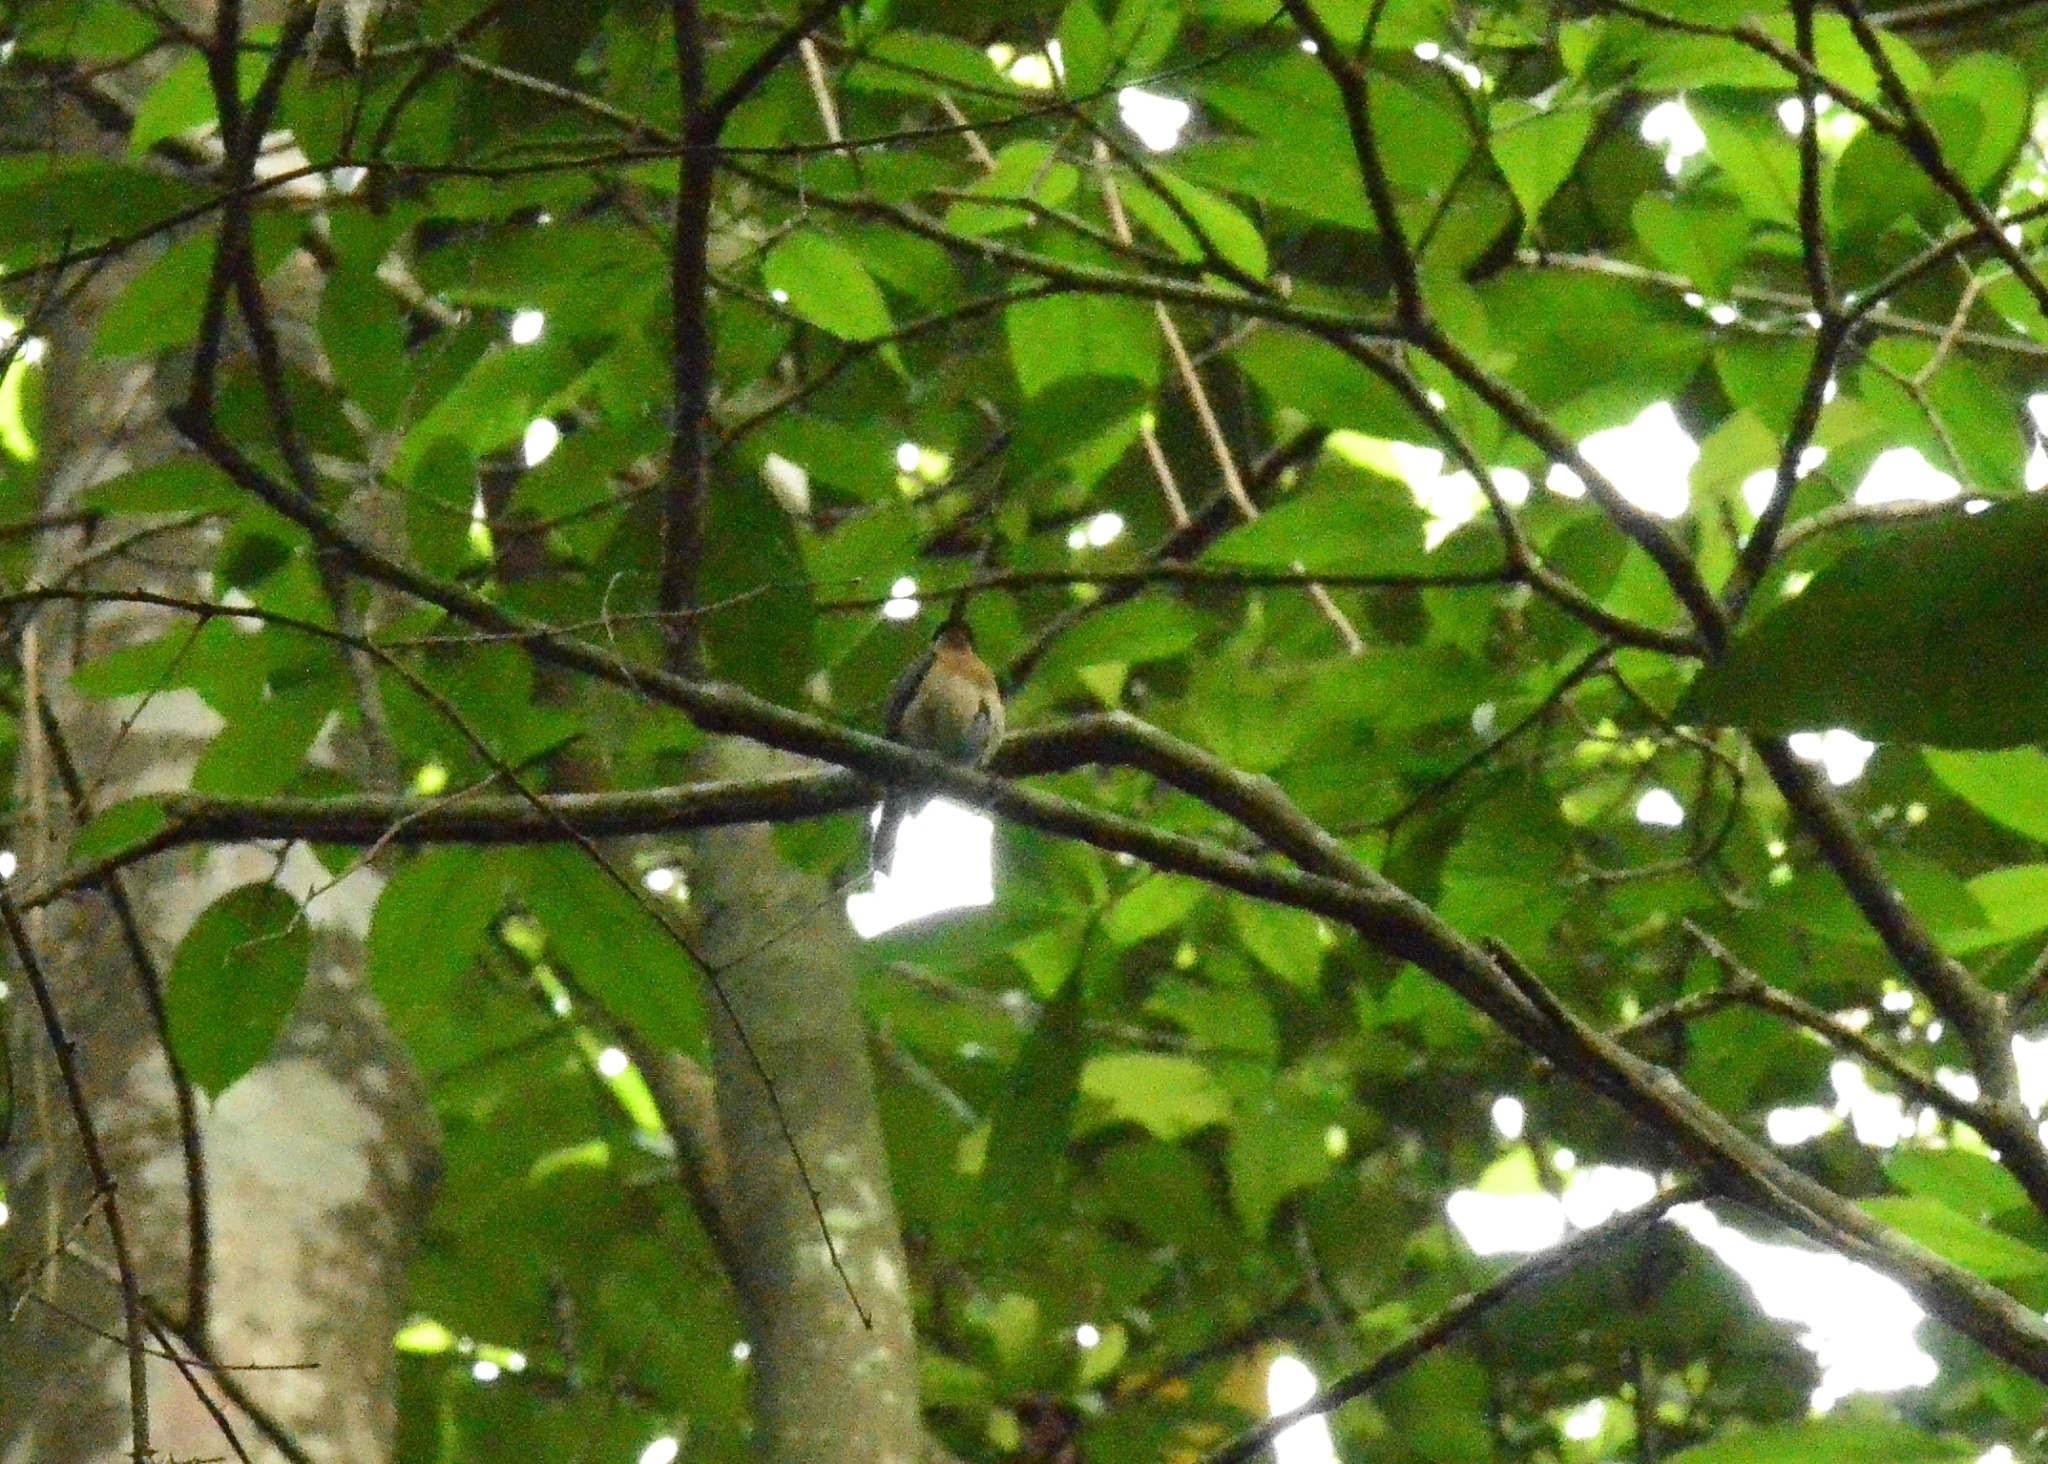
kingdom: Animalia
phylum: Chordata
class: Aves
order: Passeriformes
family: Muscicapidae
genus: Cyornis
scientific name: Cyornis tickelliae
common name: Tickell's blue flycatcher
